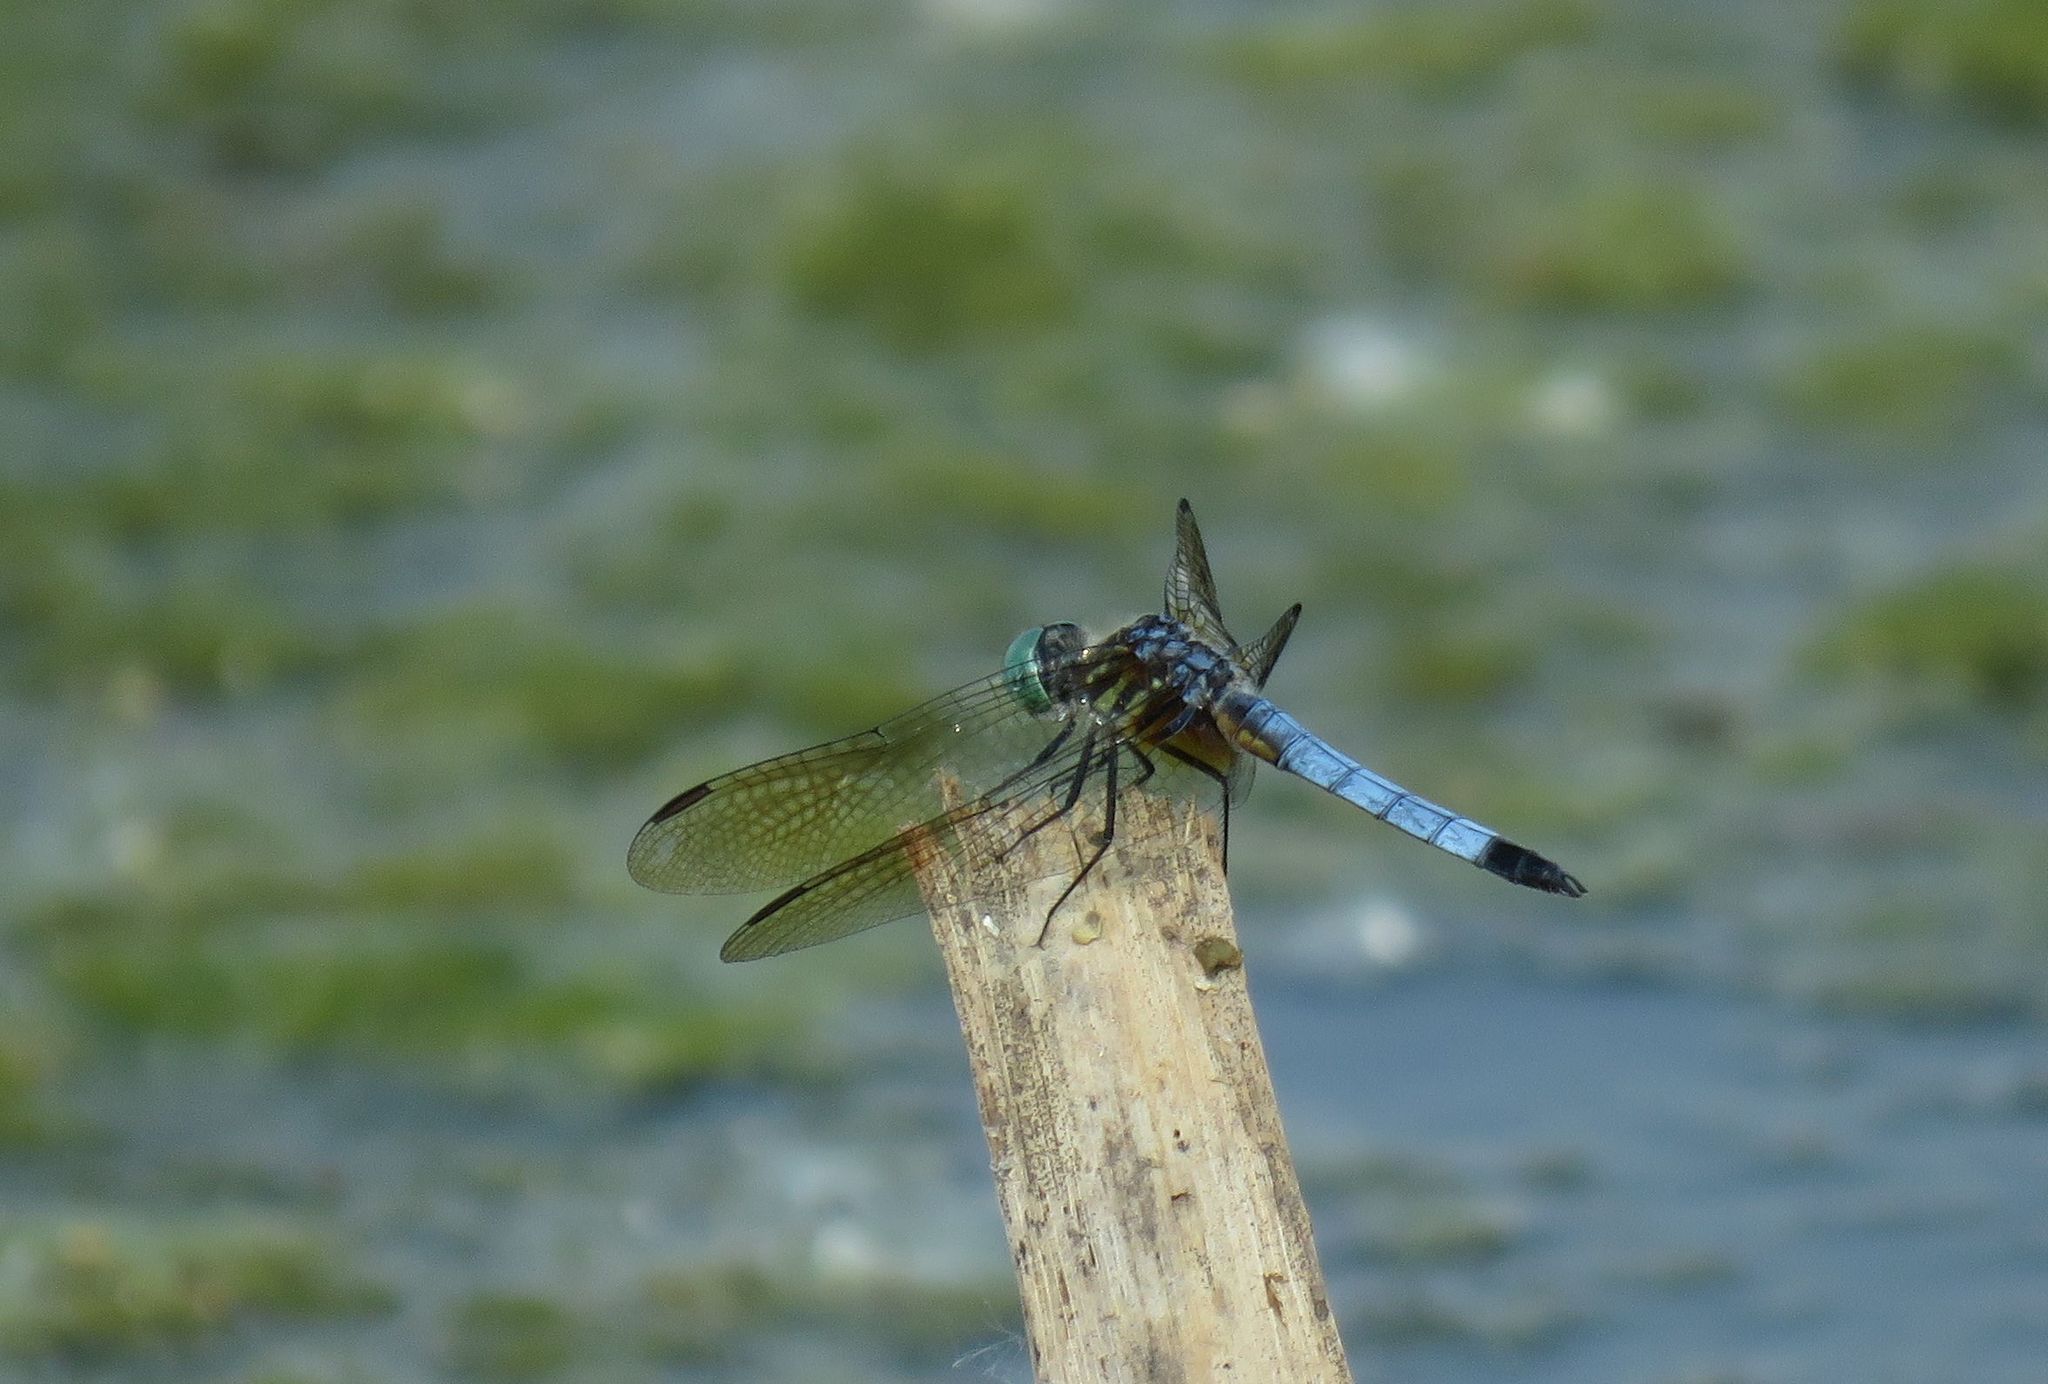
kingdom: Animalia
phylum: Arthropoda
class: Insecta
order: Odonata
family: Libellulidae
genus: Pachydiplax
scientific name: Pachydiplax longipennis
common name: Blue dasher
